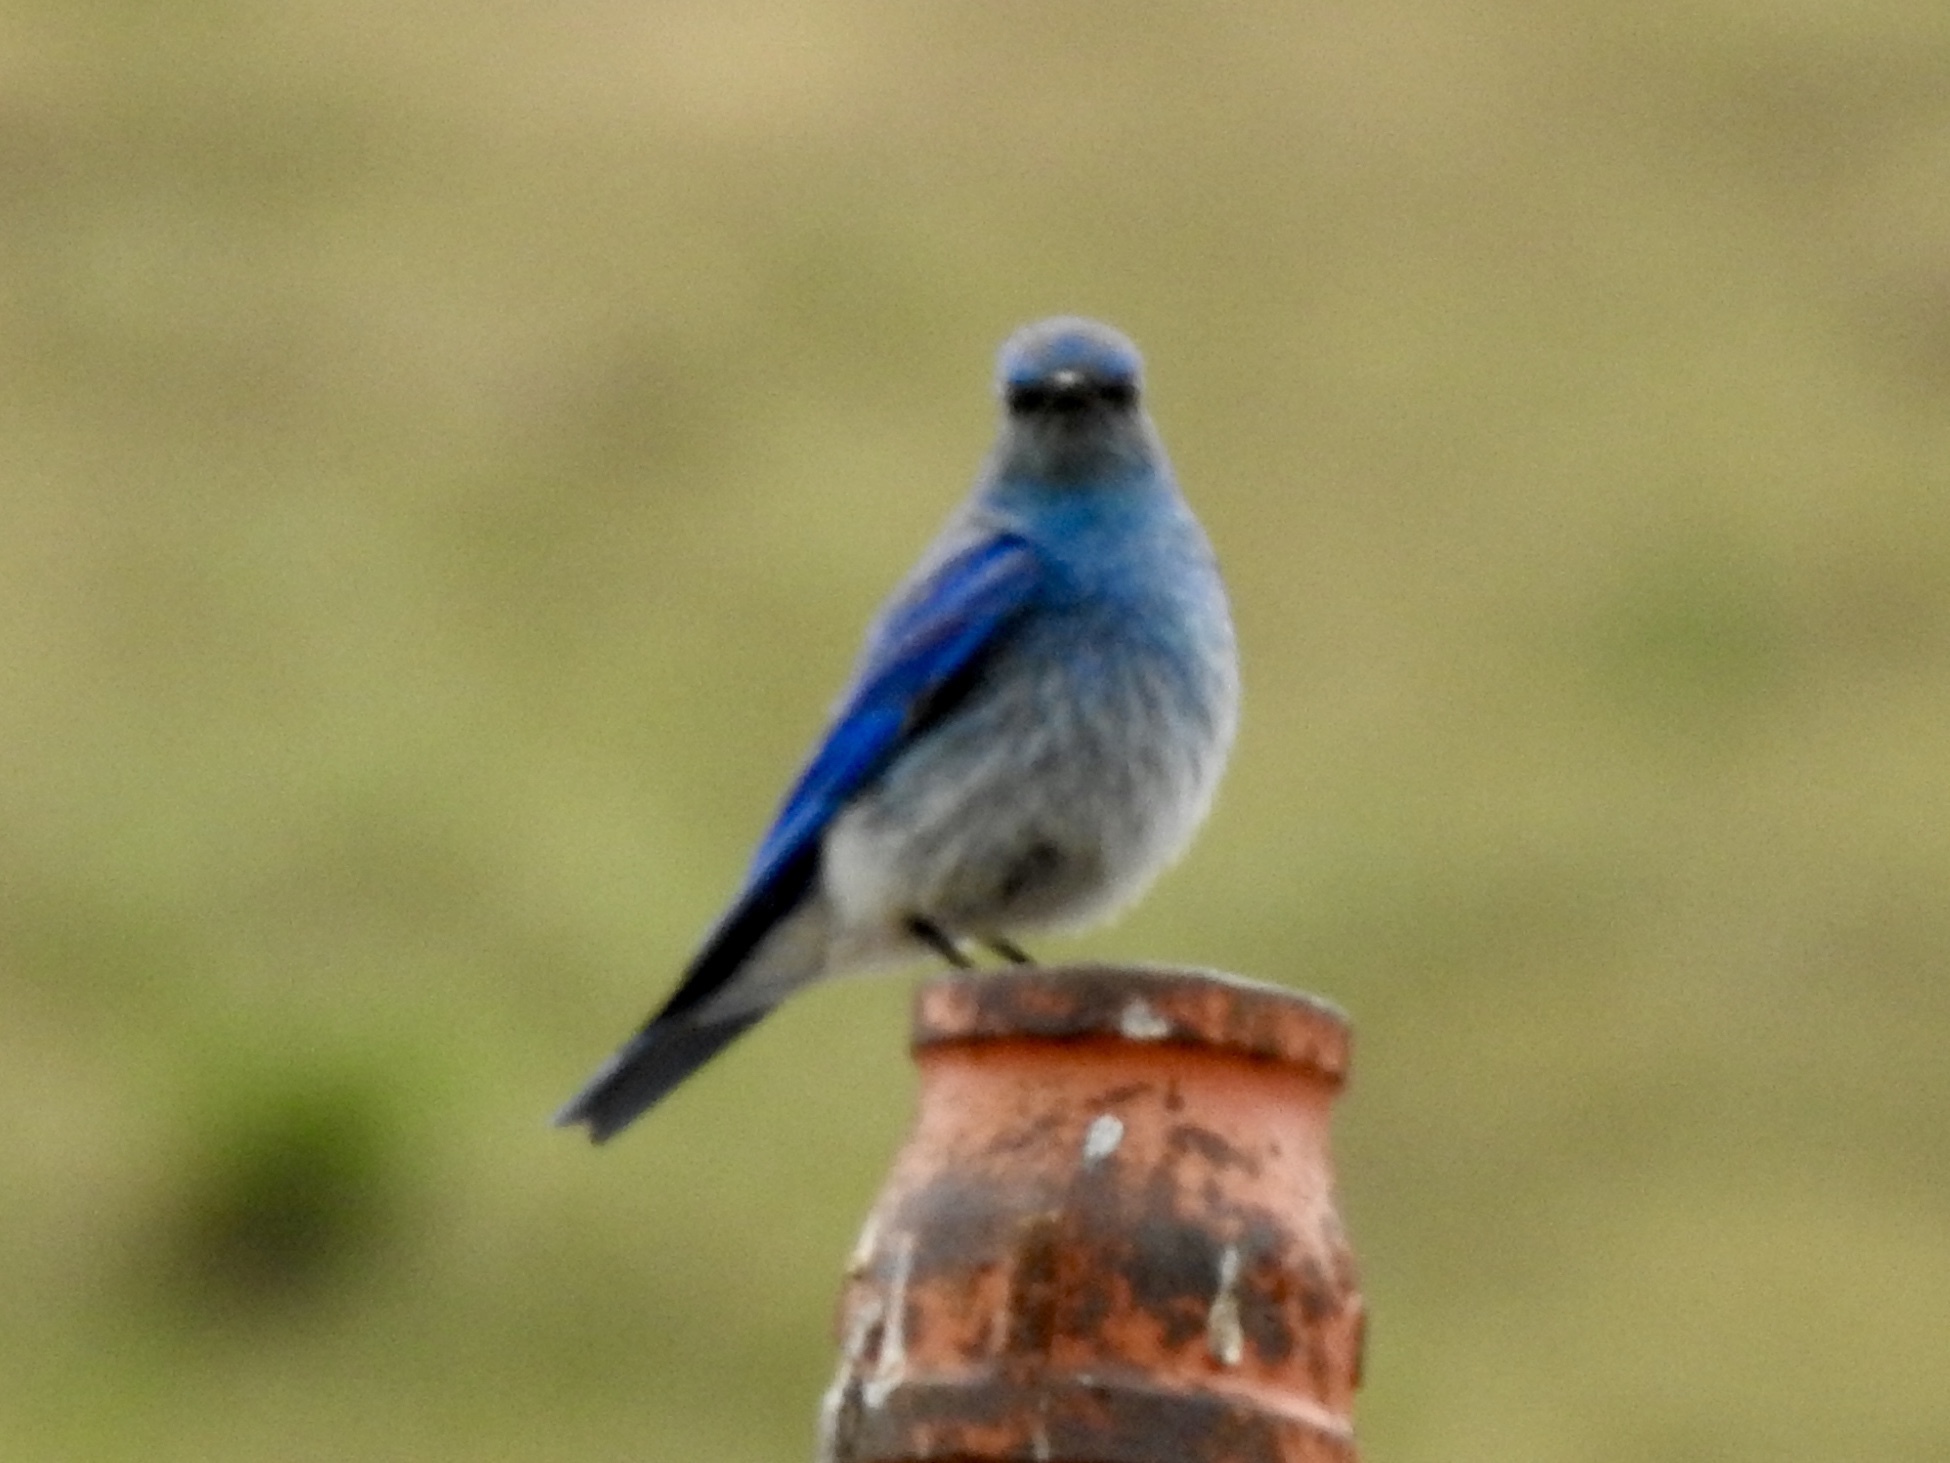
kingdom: Animalia
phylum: Chordata
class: Aves
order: Passeriformes
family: Turdidae
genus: Sialia
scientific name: Sialia currucoides
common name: Mountain bluebird
